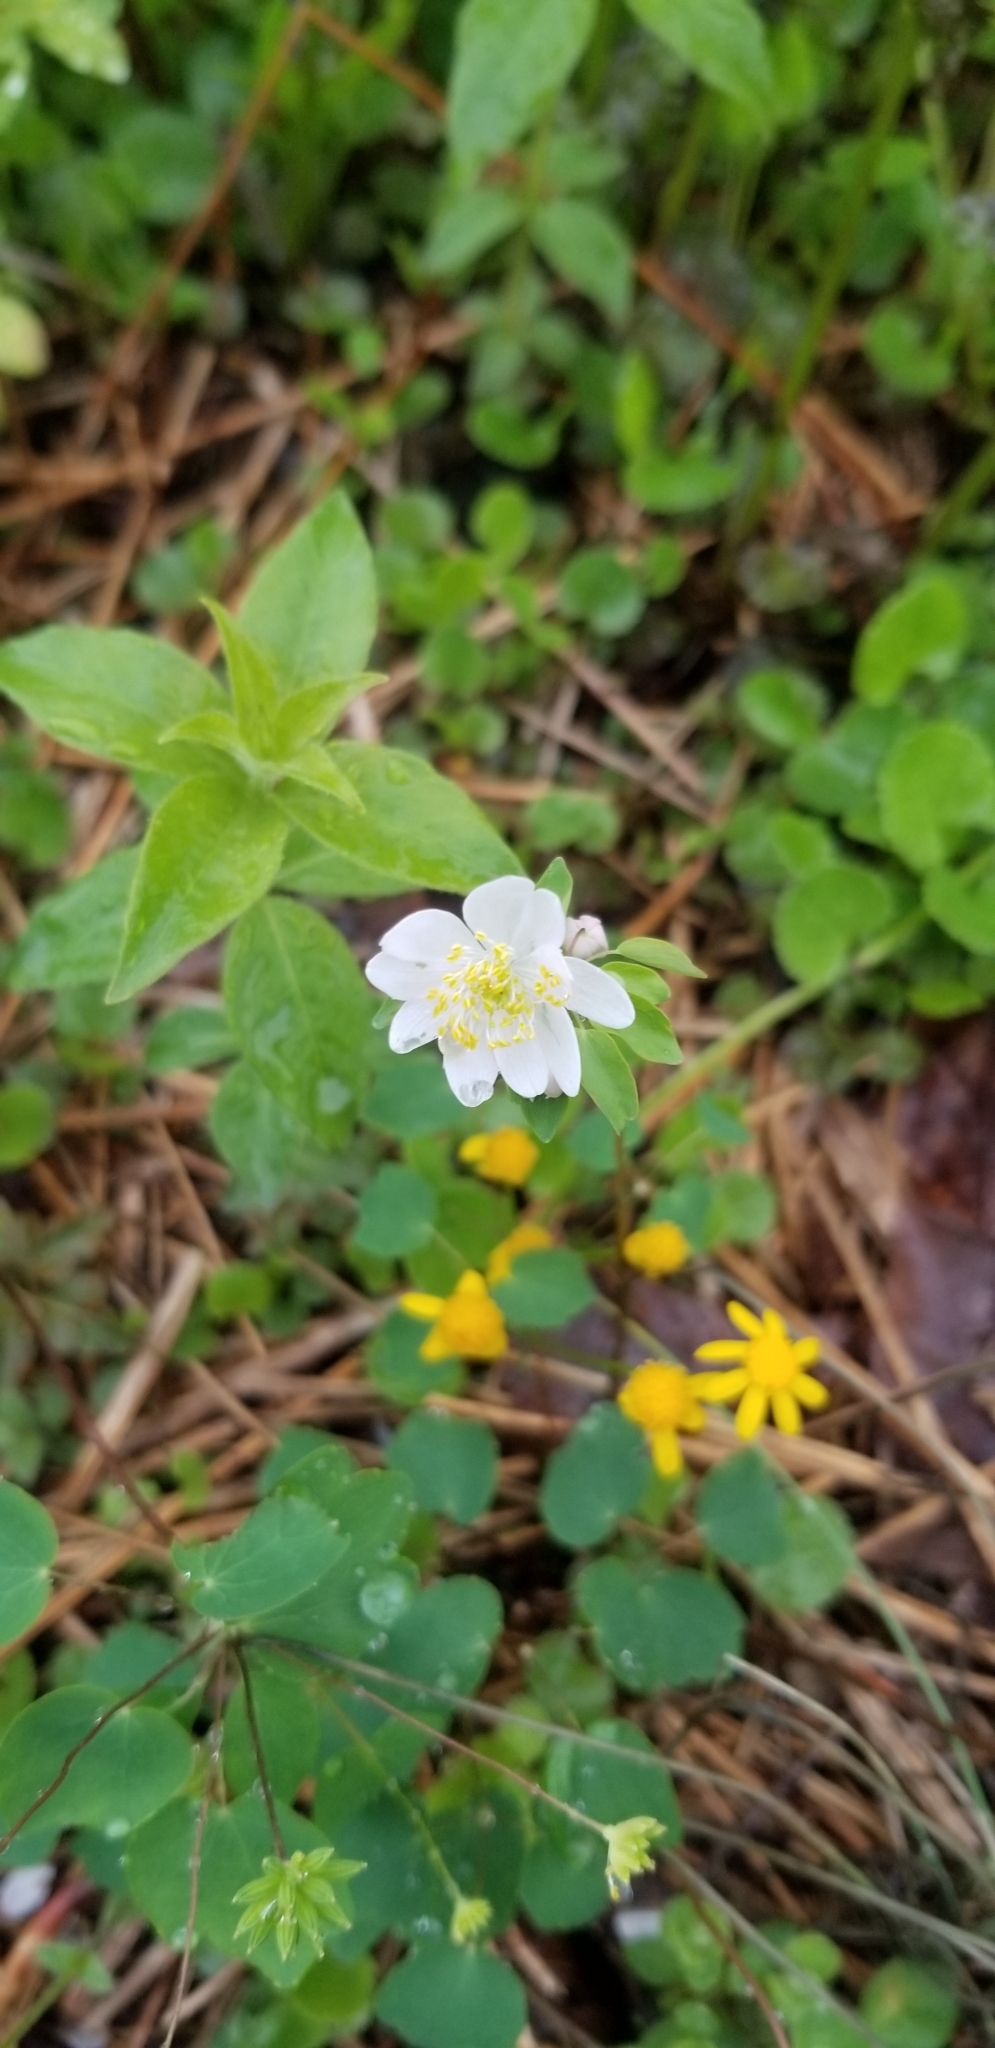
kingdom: Plantae
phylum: Tracheophyta
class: Magnoliopsida
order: Ranunculales
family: Ranunculaceae
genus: Thalictrum
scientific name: Thalictrum thalictroides
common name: Rue-anemone
